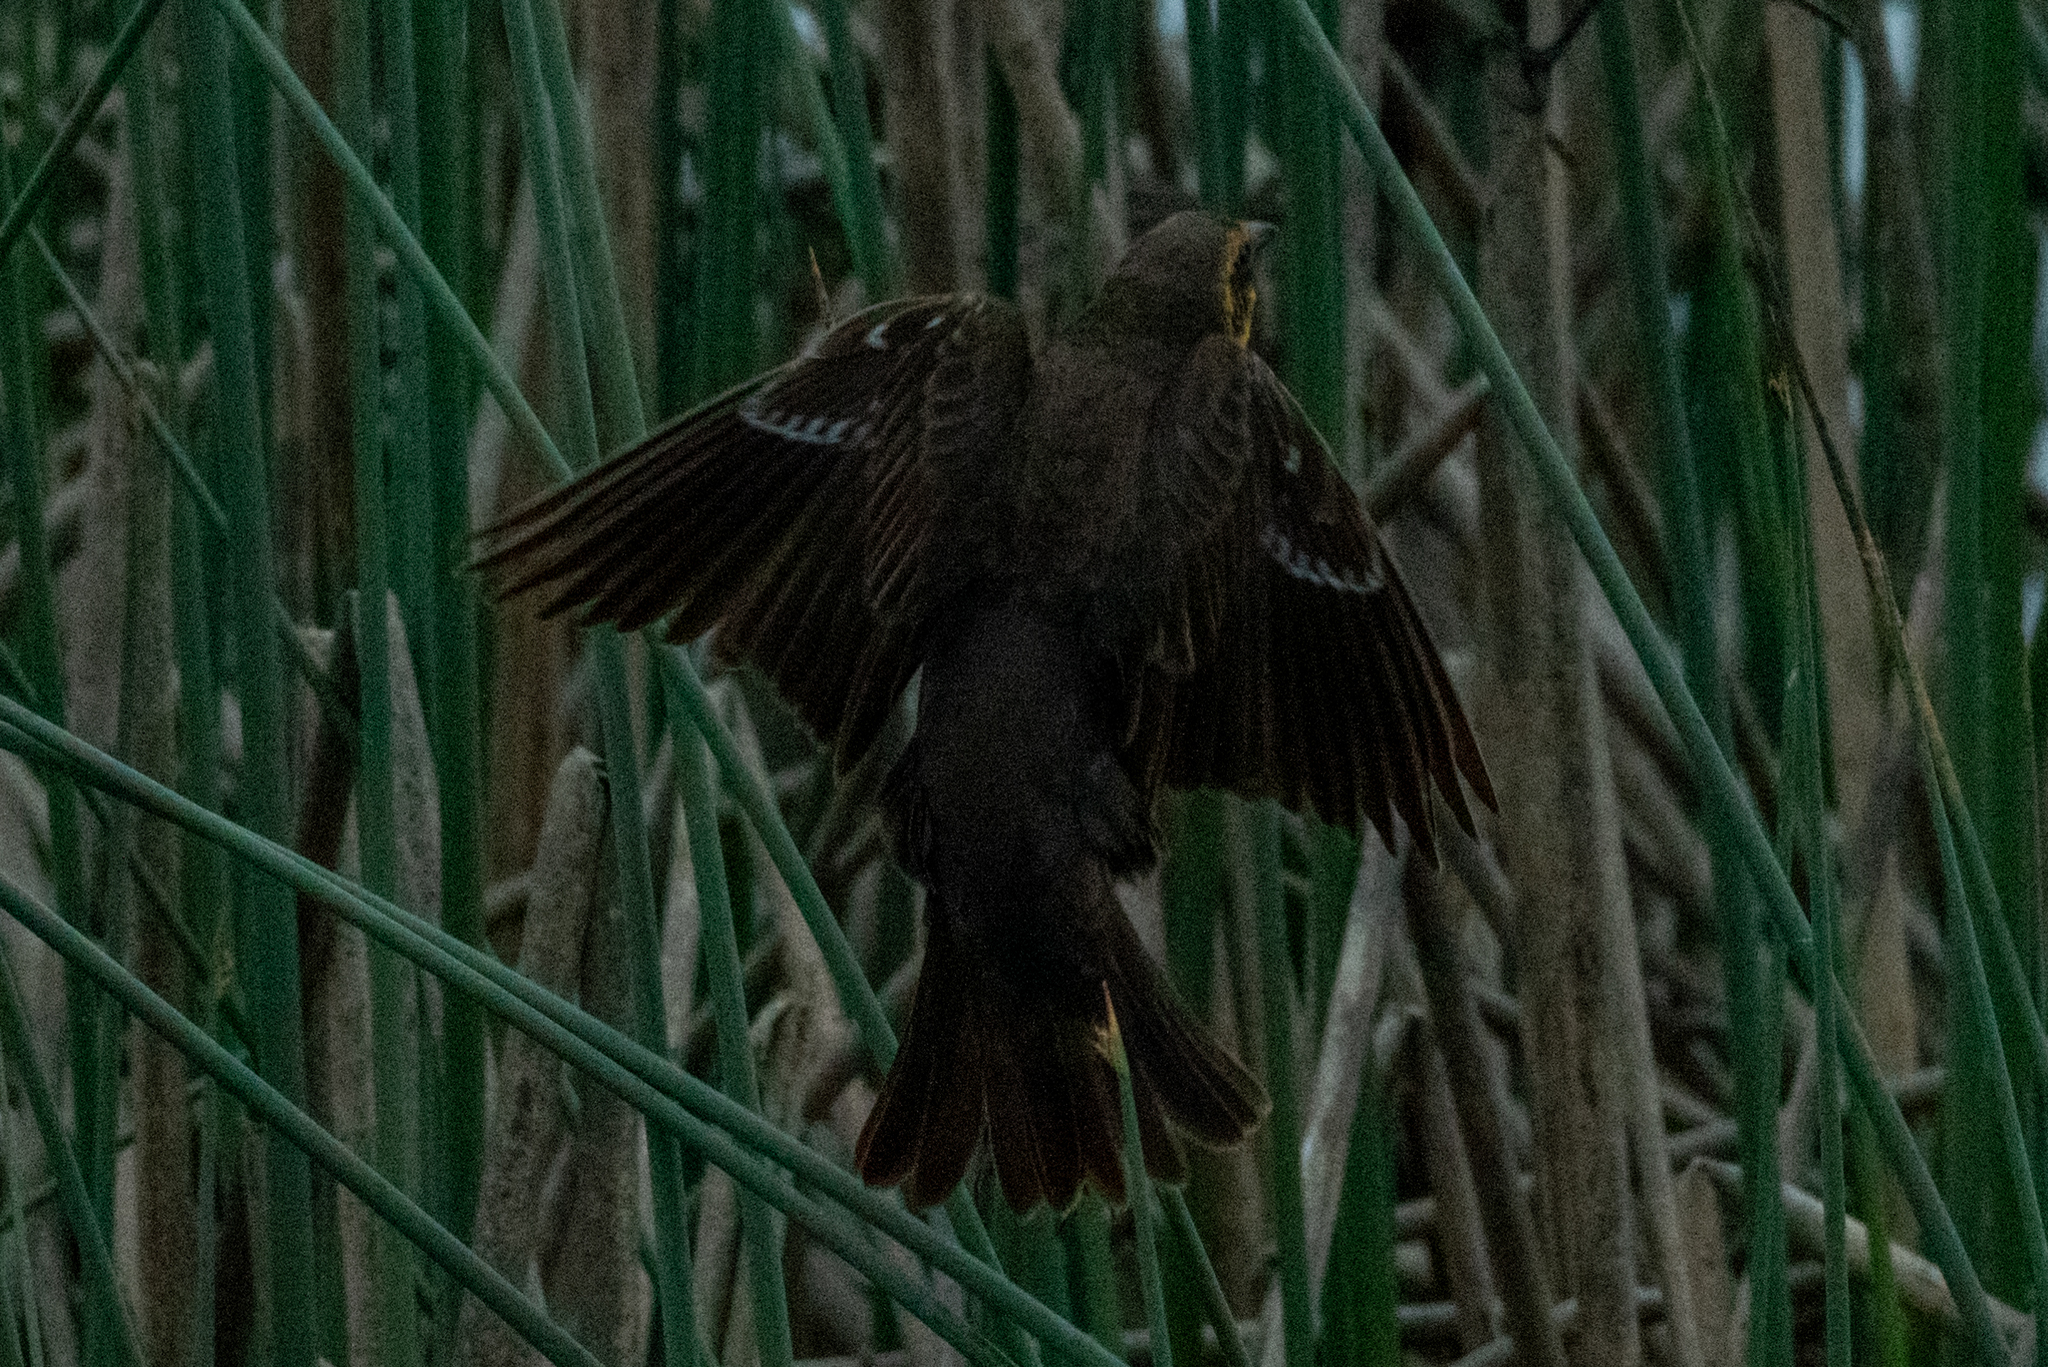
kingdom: Animalia
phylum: Chordata
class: Aves
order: Passeriformes
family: Icteridae
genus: Agelaius
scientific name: Agelaius phoeniceus
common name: Red-winged blackbird
